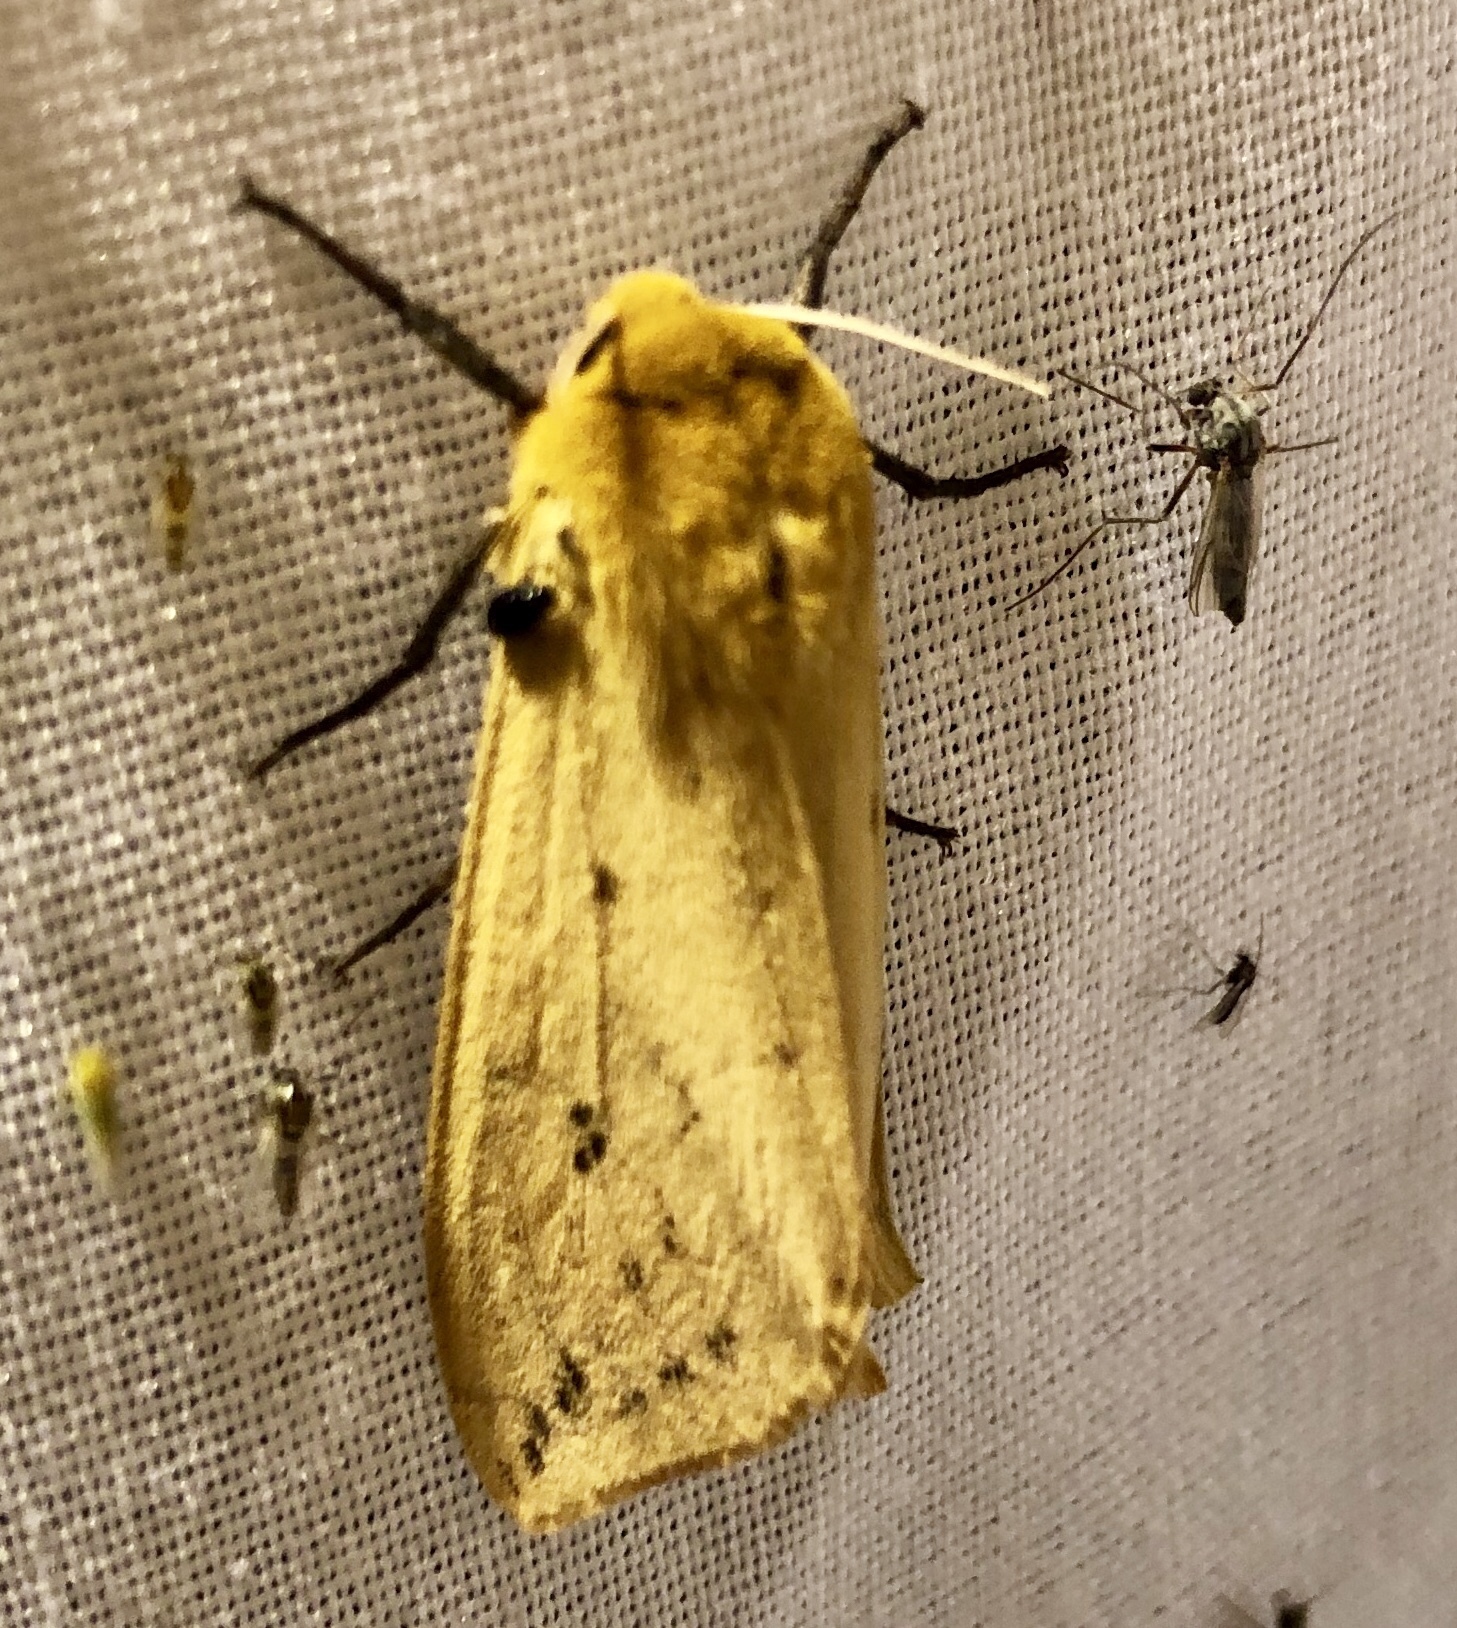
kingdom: Animalia
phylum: Arthropoda
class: Insecta
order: Lepidoptera
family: Erebidae
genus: Pyrrharctia
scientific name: Pyrrharctia isabella
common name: Isabella tiger moth
